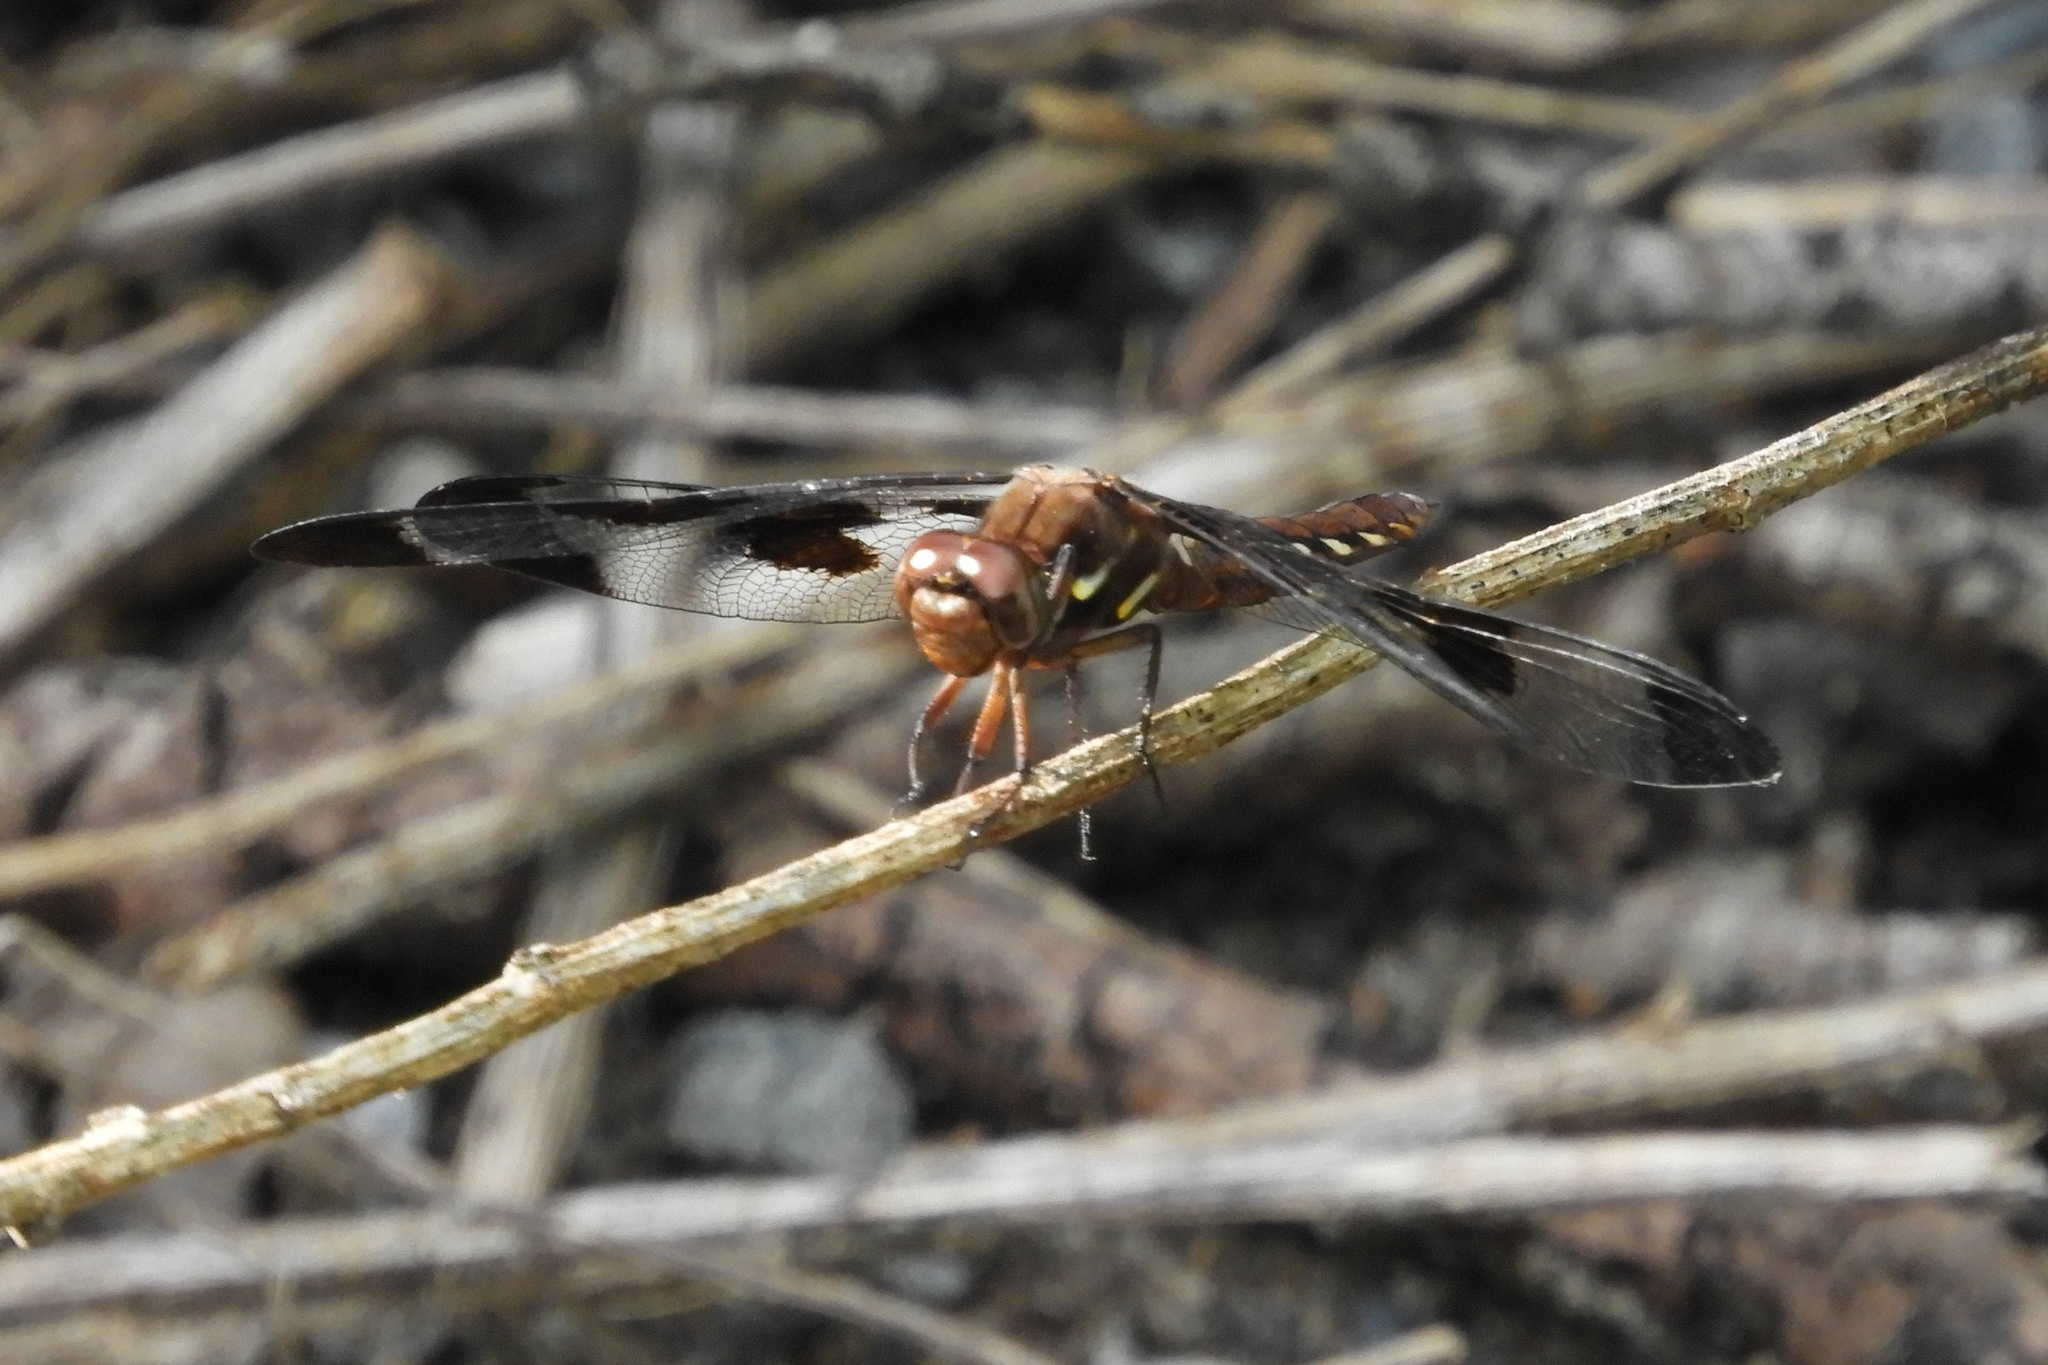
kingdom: Animalia
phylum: Arthropoda
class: Insecta
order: Odonata
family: Libellulidae
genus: Plathemis
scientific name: Plathemis lydia
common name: Common whitetail
